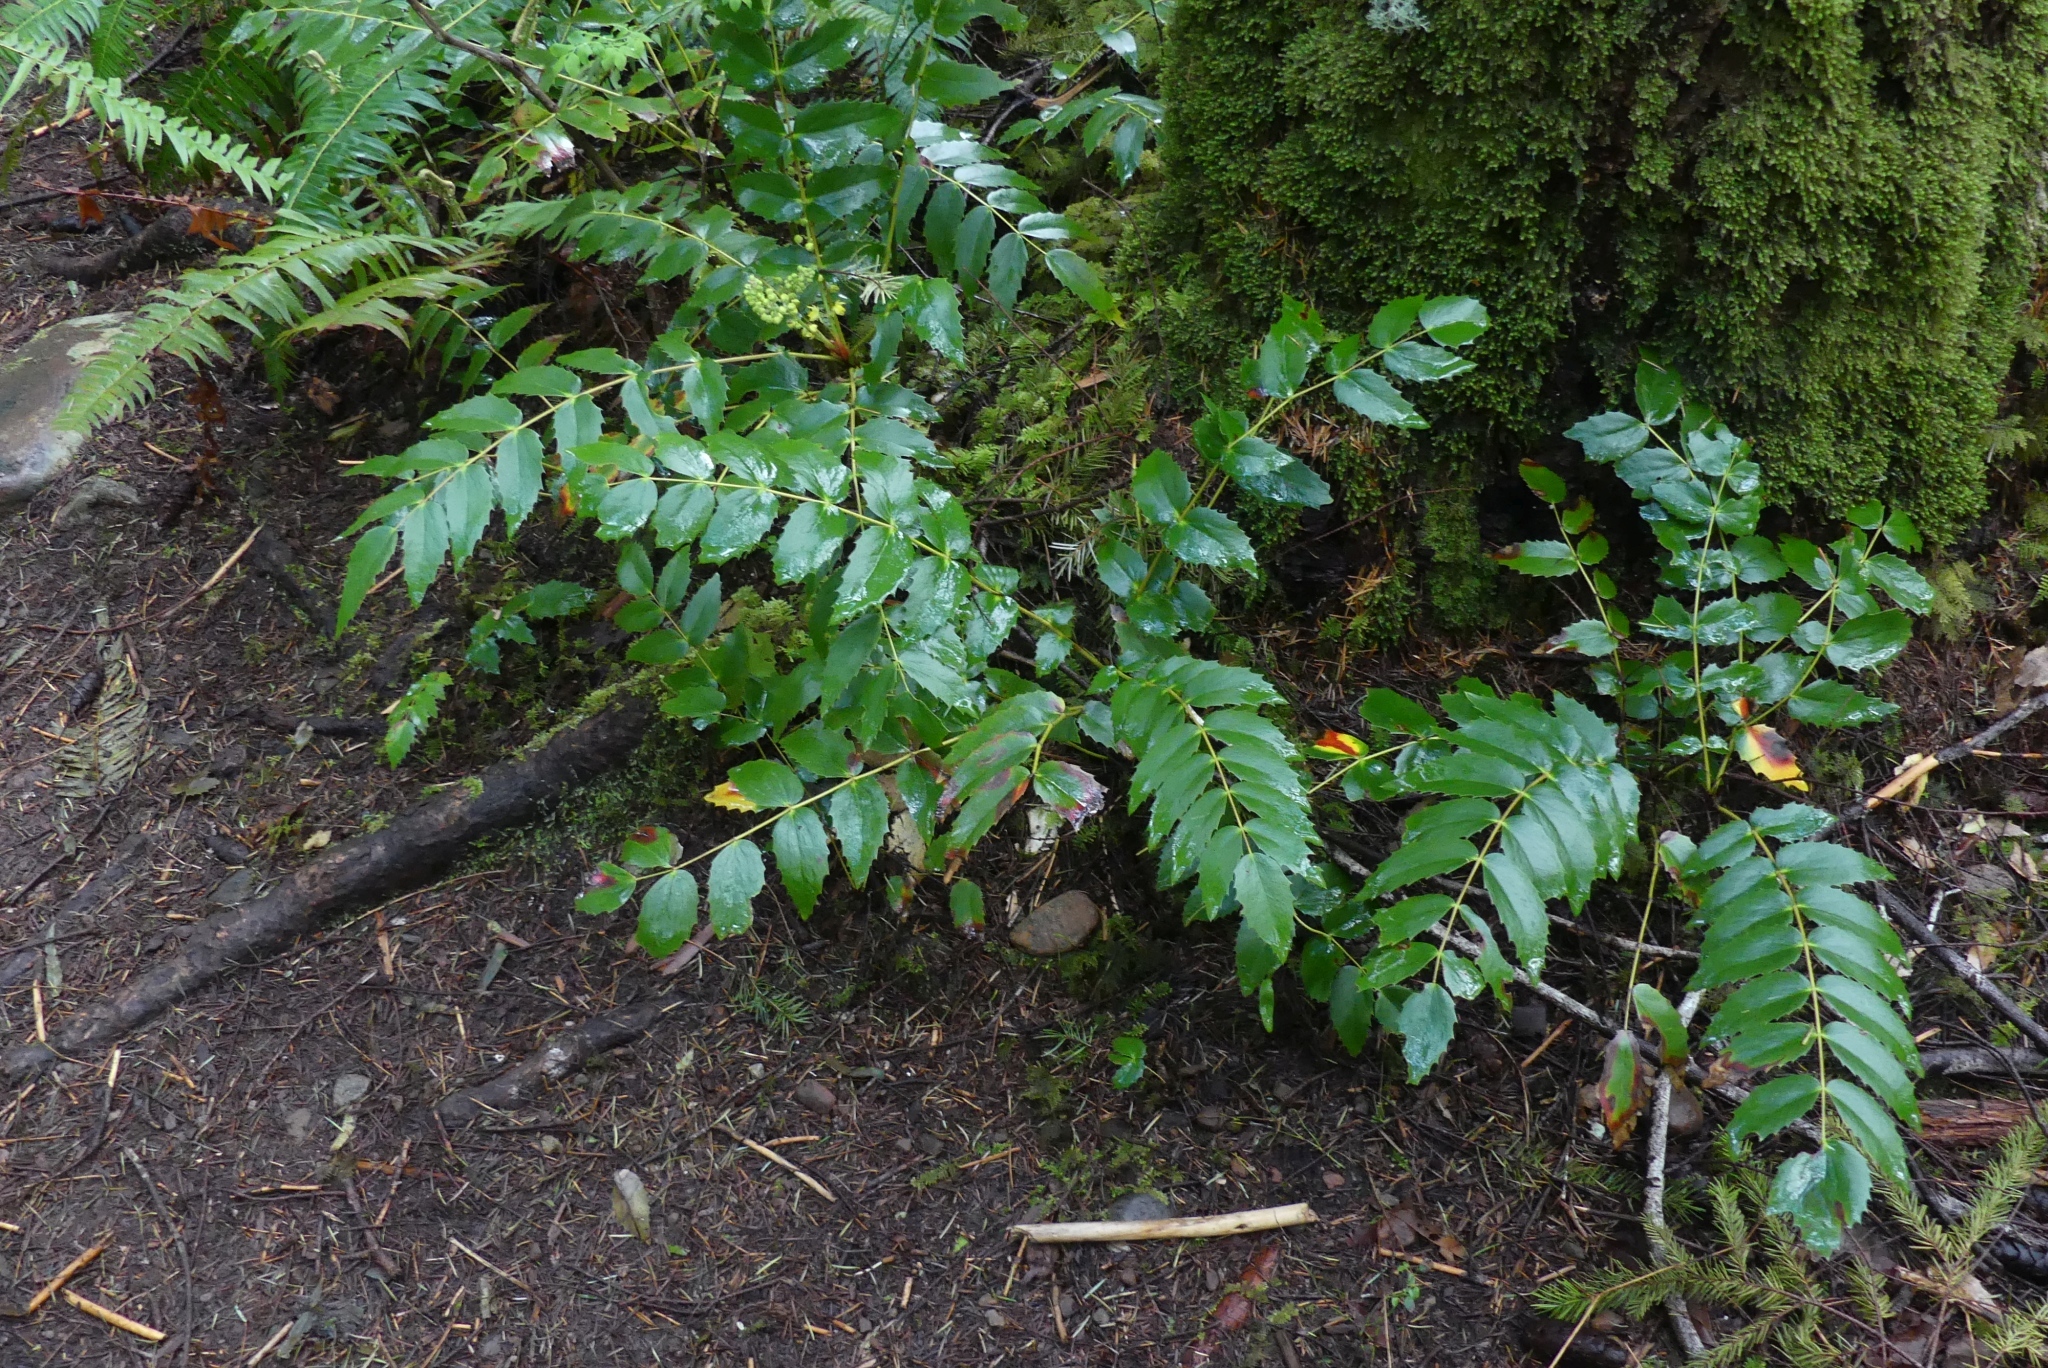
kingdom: Plantae
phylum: Tracheophyta
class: Magnoliopsida
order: Ranunculales
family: Berberidaceae
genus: Mahonia
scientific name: Mahonia nervosa
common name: Cascade oregon-grape
